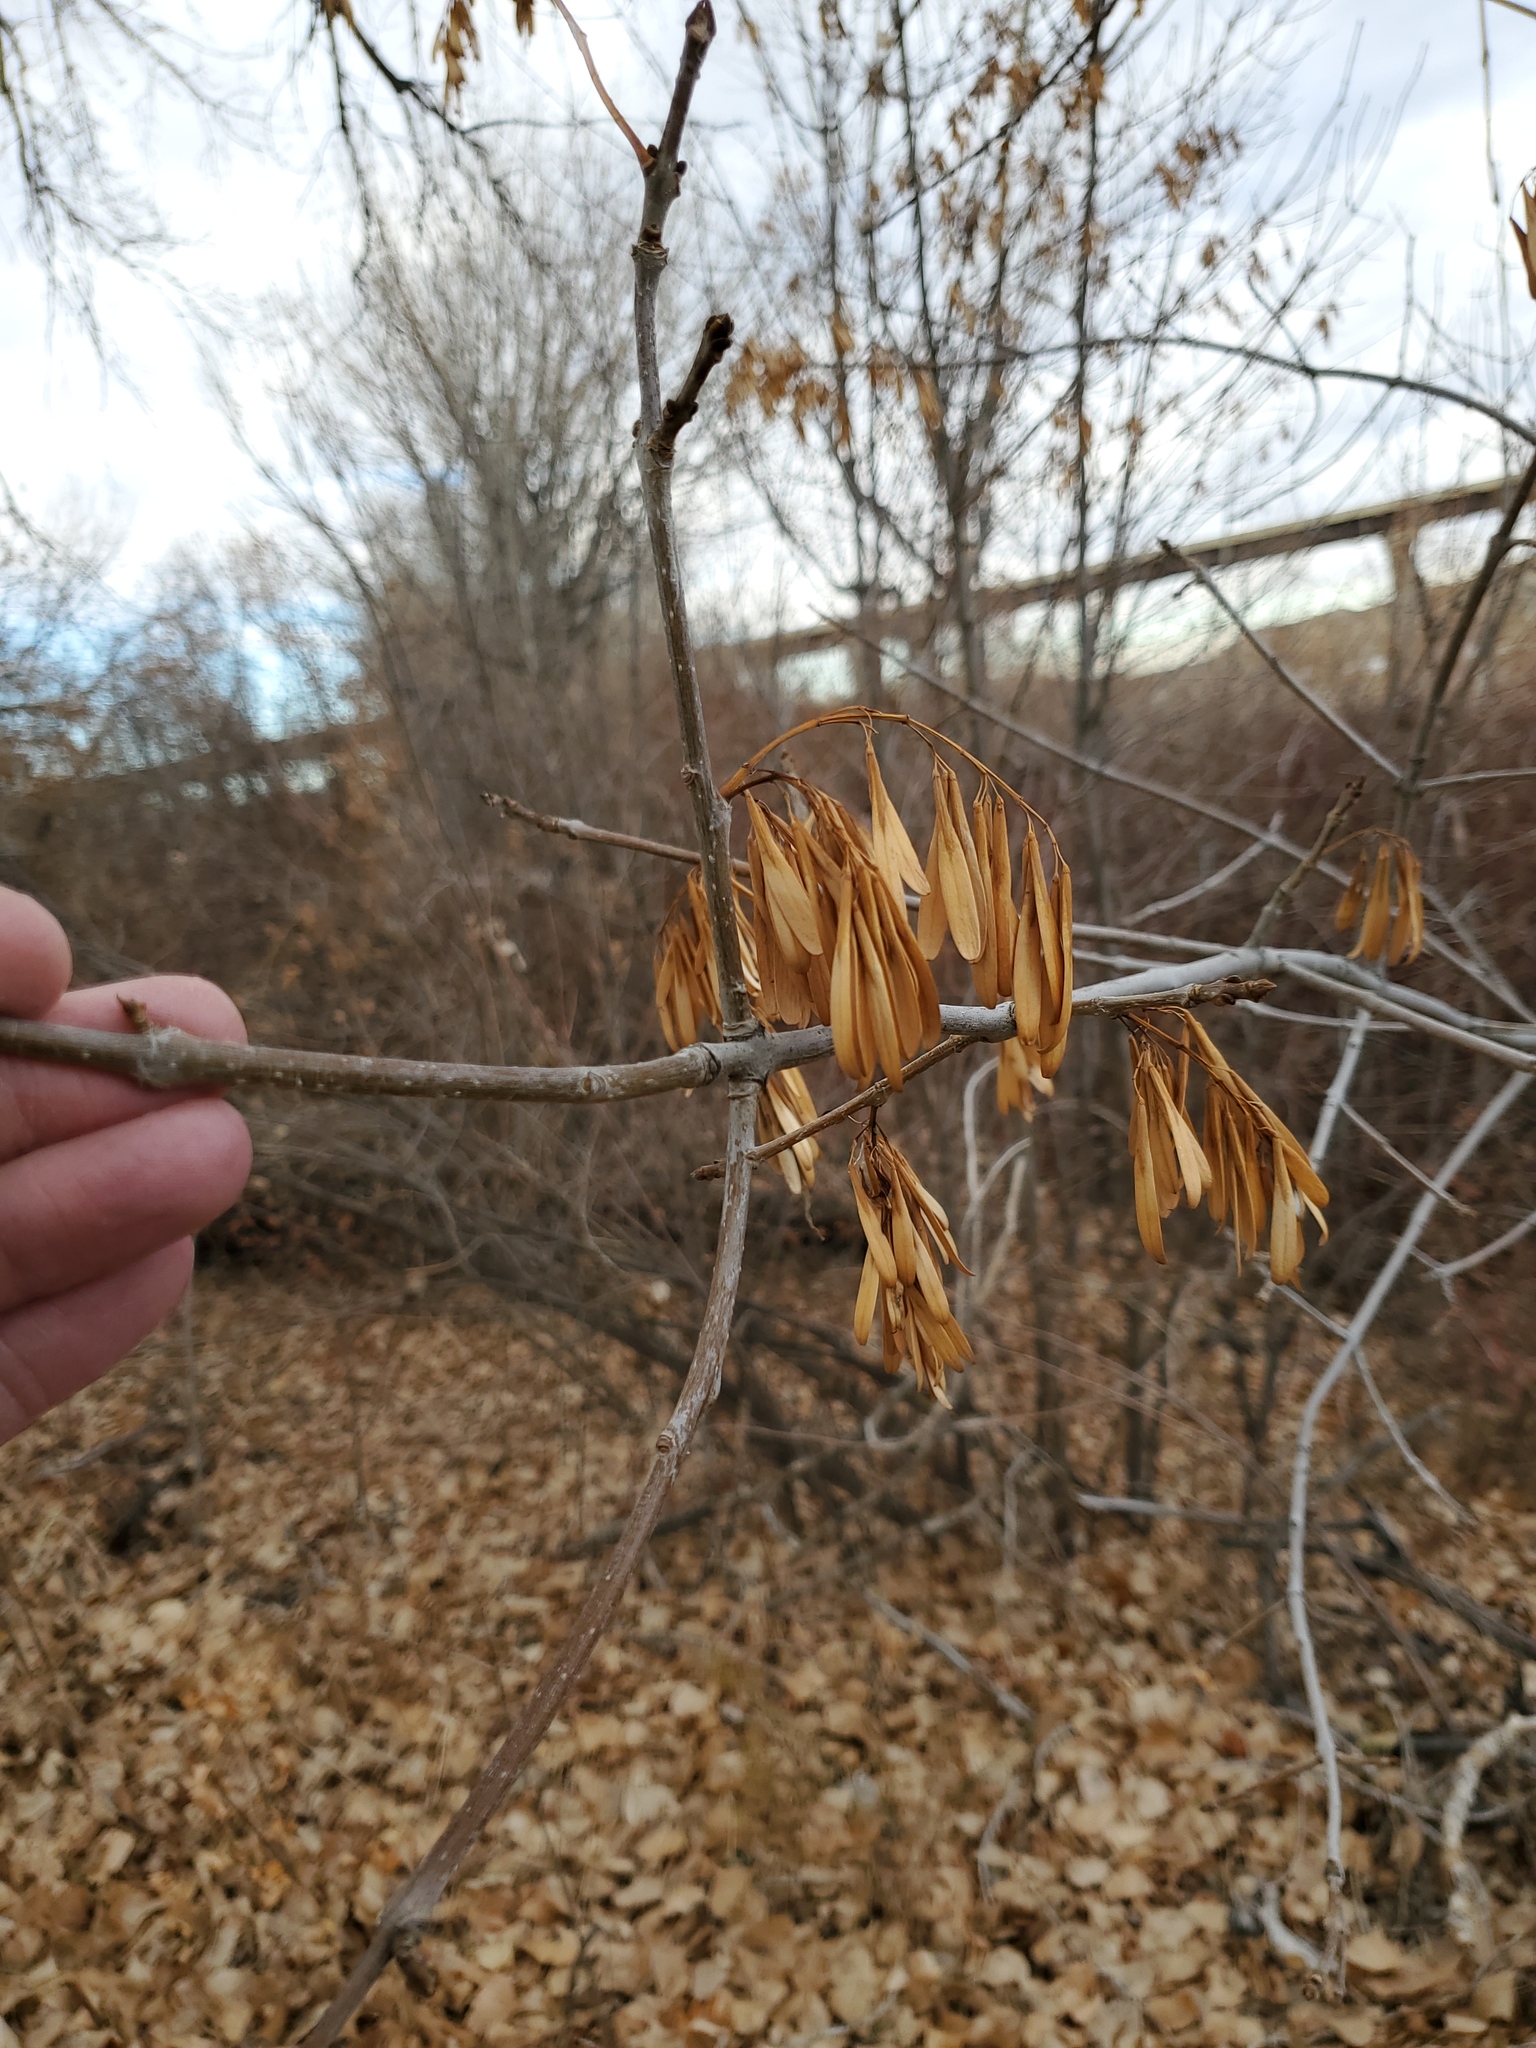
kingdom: Plantae
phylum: Tracheophyta
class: Magnoliopsida
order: Lamiales
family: Oleaceae
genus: Fraxinus
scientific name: Fraxinus pennsylvanica
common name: Green ash
